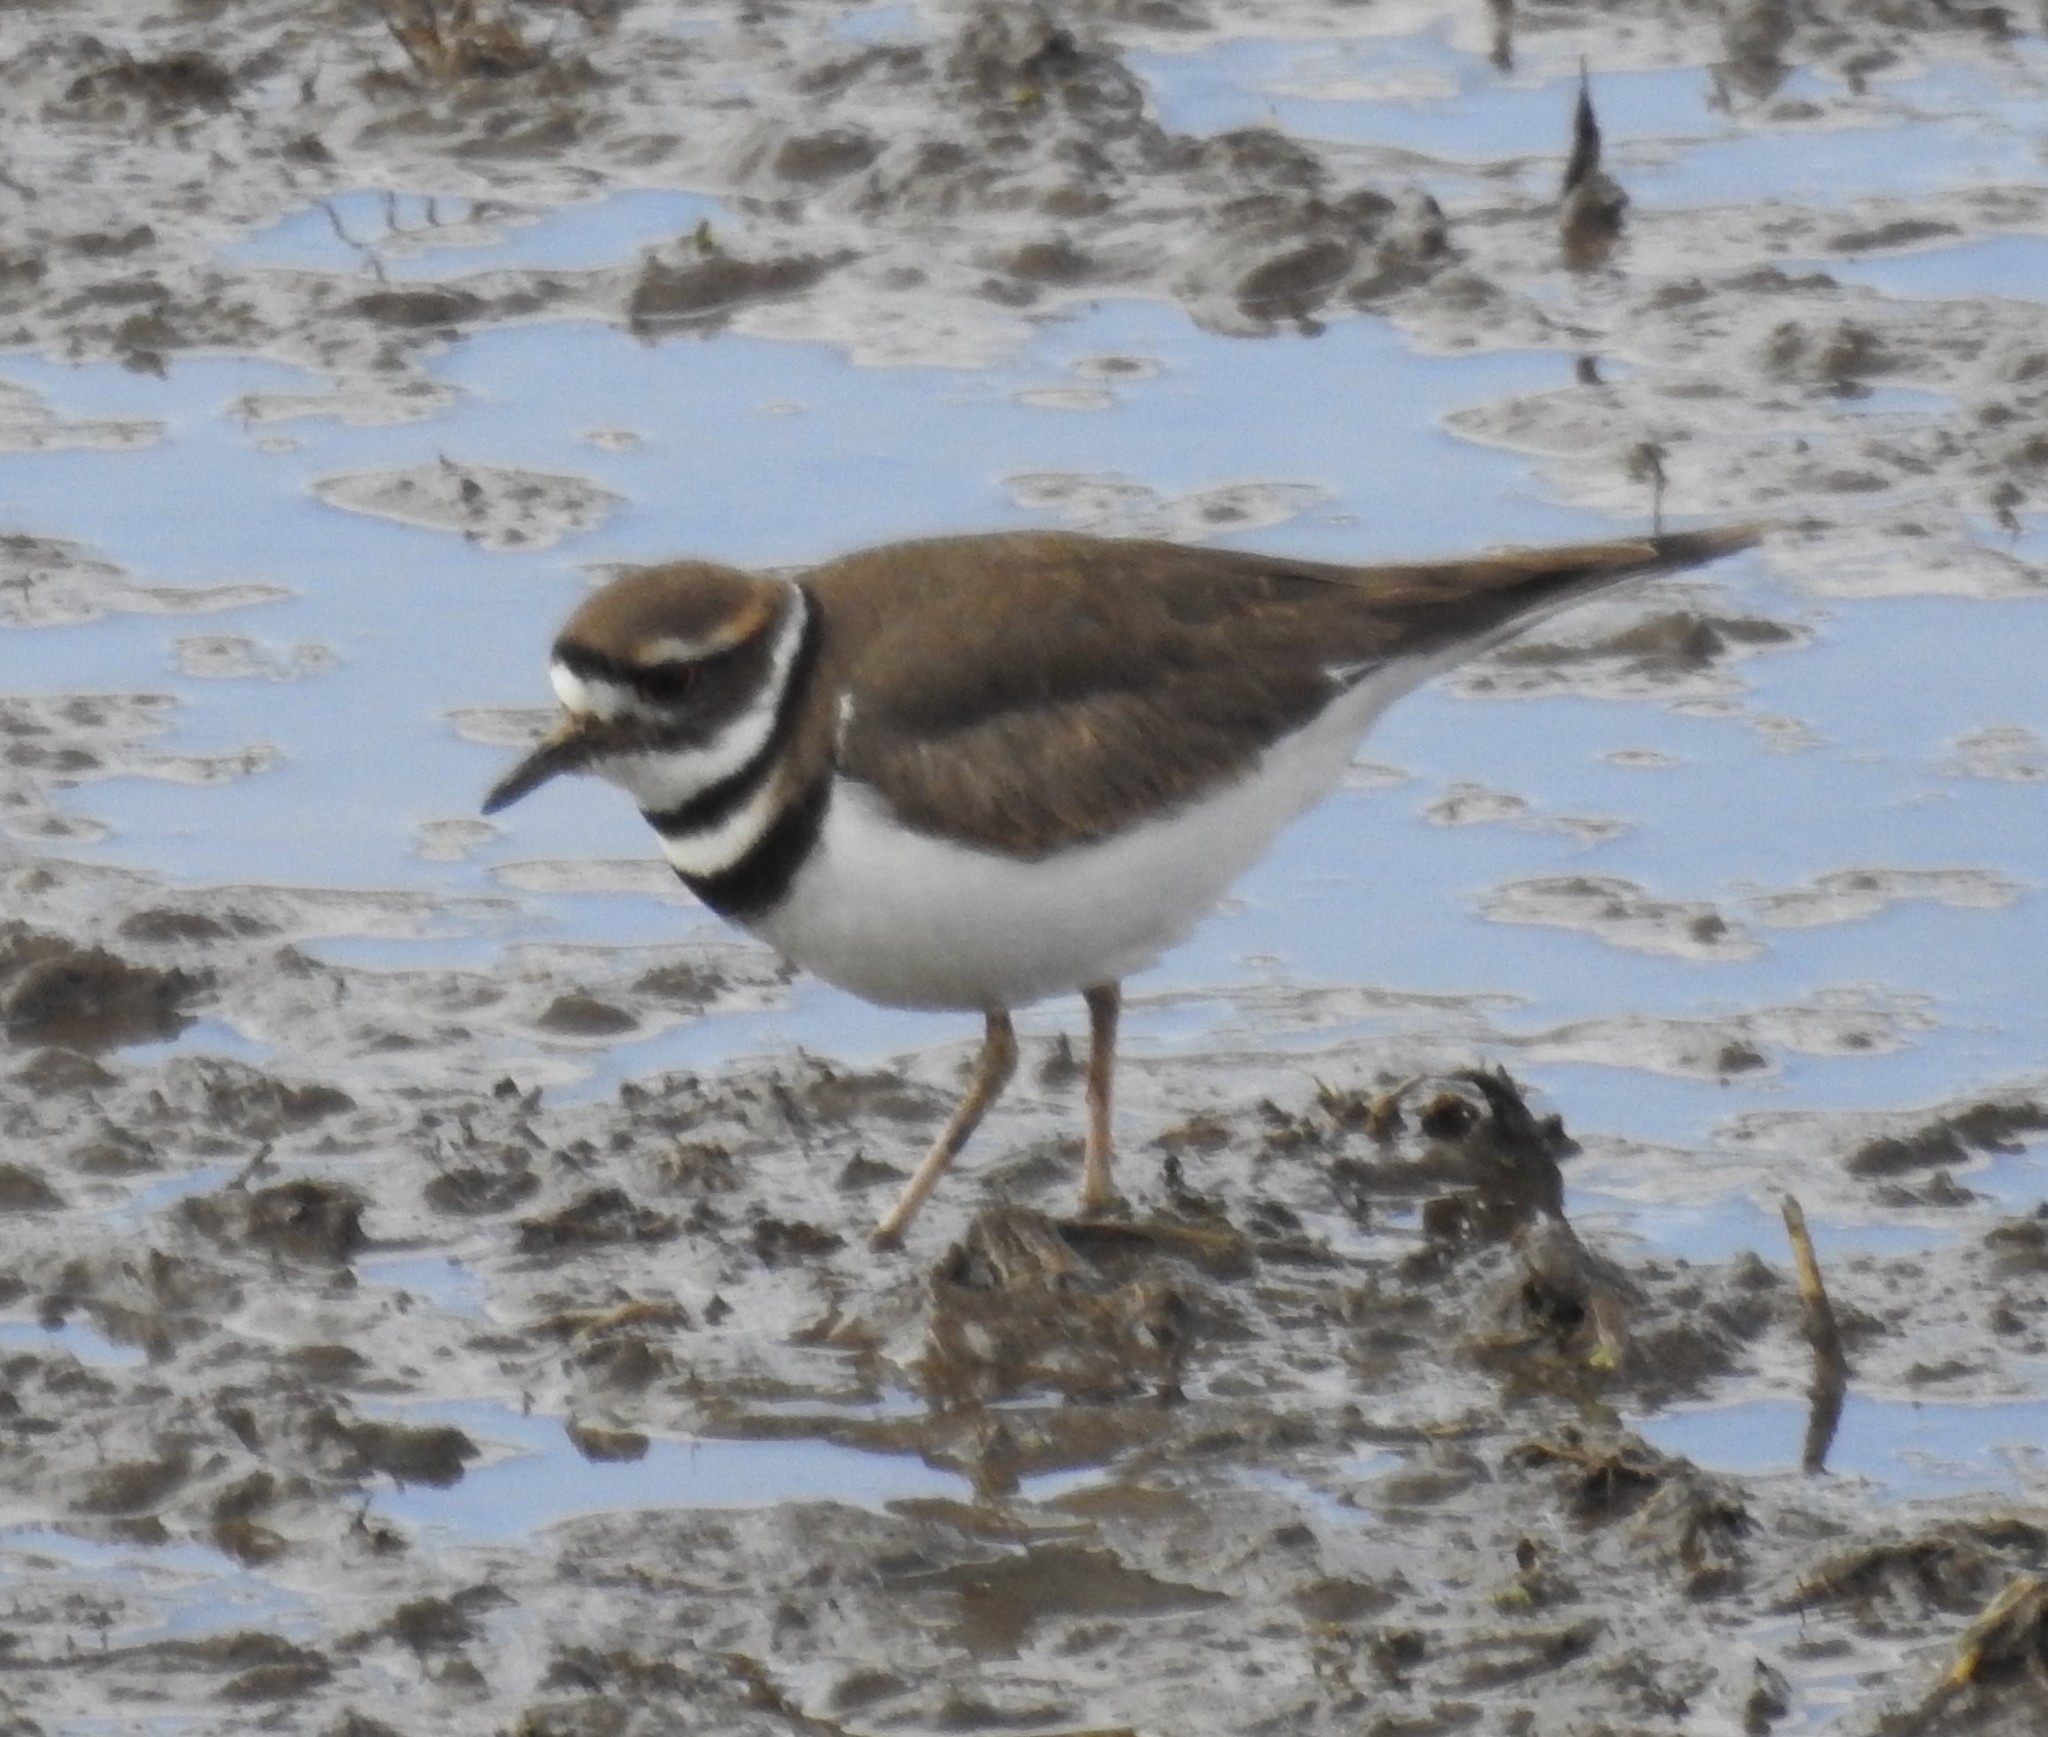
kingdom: Animalia
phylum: Chordata
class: Aves
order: Charadriiformes
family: Charadriidae
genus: Charadrius
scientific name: Charadrius vociferus
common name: Killdeer
